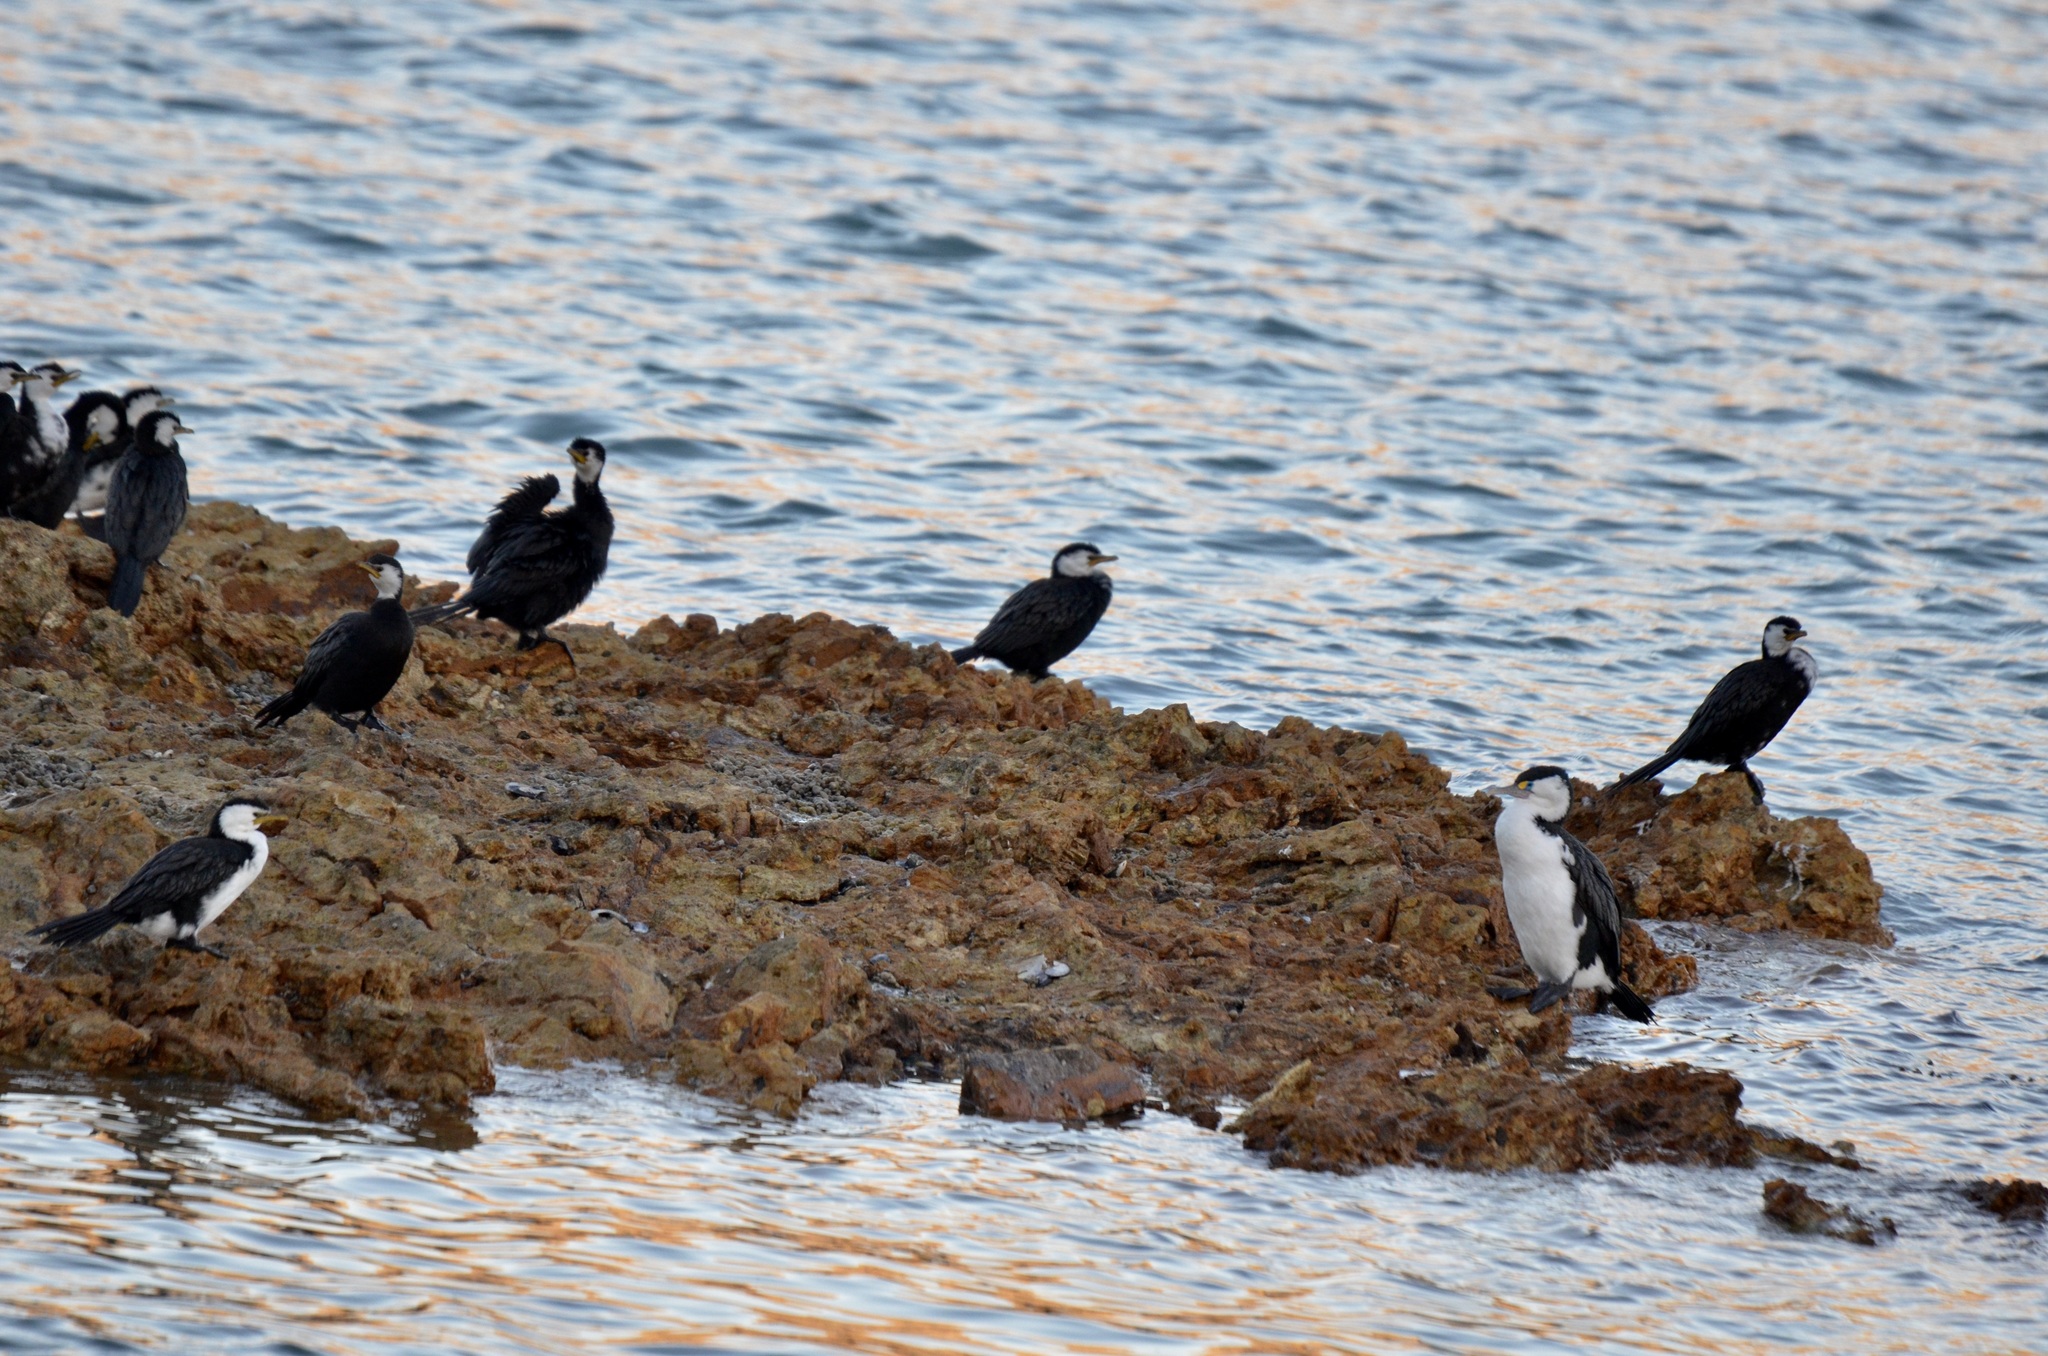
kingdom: Animalia
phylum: Chordata
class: Aves
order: Suliformes
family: Phalacrocoracidae
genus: Microcarbo
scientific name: Microcarbo melanoleucos
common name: Little pied cormorant
